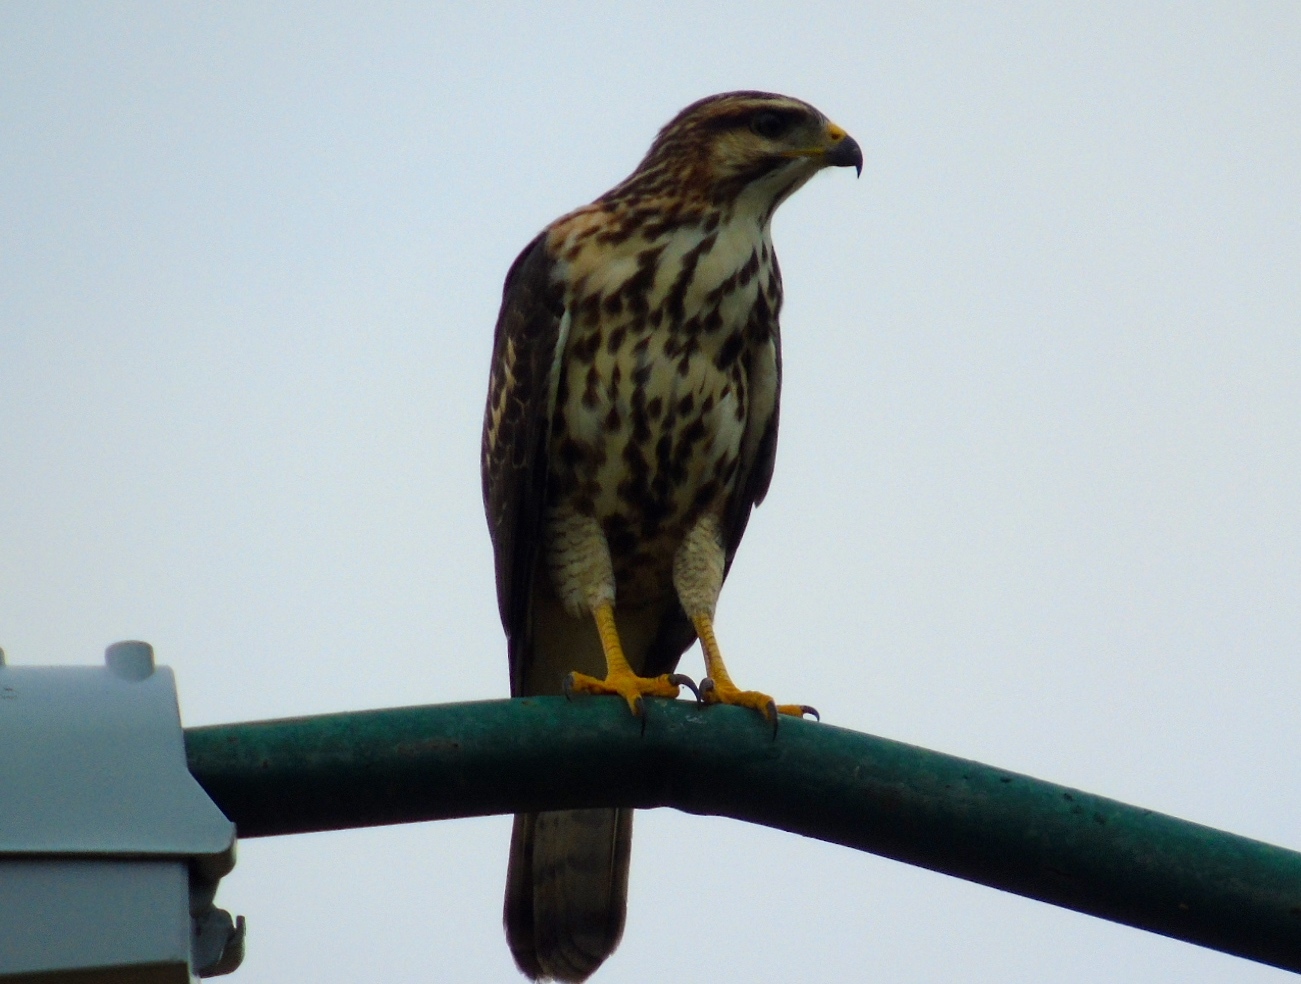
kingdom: Animalia
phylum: Chordata
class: Aves
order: Accipitriformes
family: Accipitridae
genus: Buteo
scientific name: Buteo nitidus
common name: Grey-lined hawk
